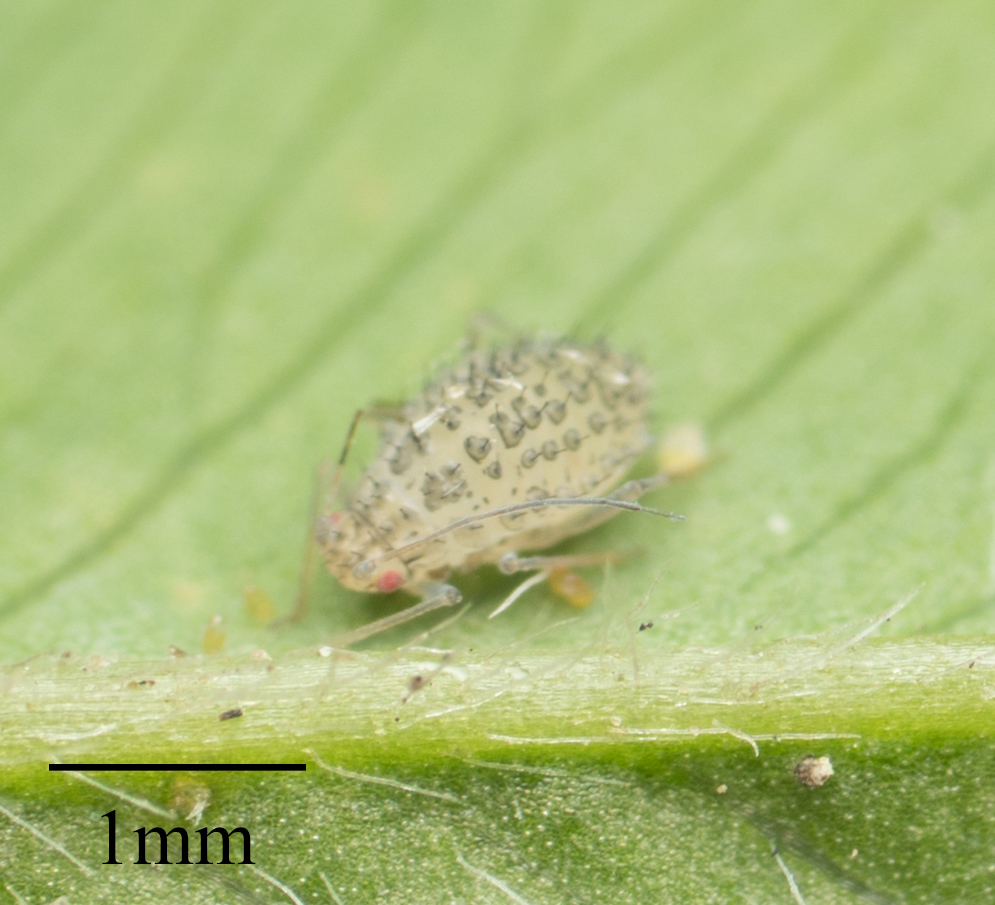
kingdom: Animalia
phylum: Arthropoda
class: Insecta
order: Hemiptera
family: Aphididae
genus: Therioaphis
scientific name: Therioaphis trifolii
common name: Spotted alfalfa aphid
